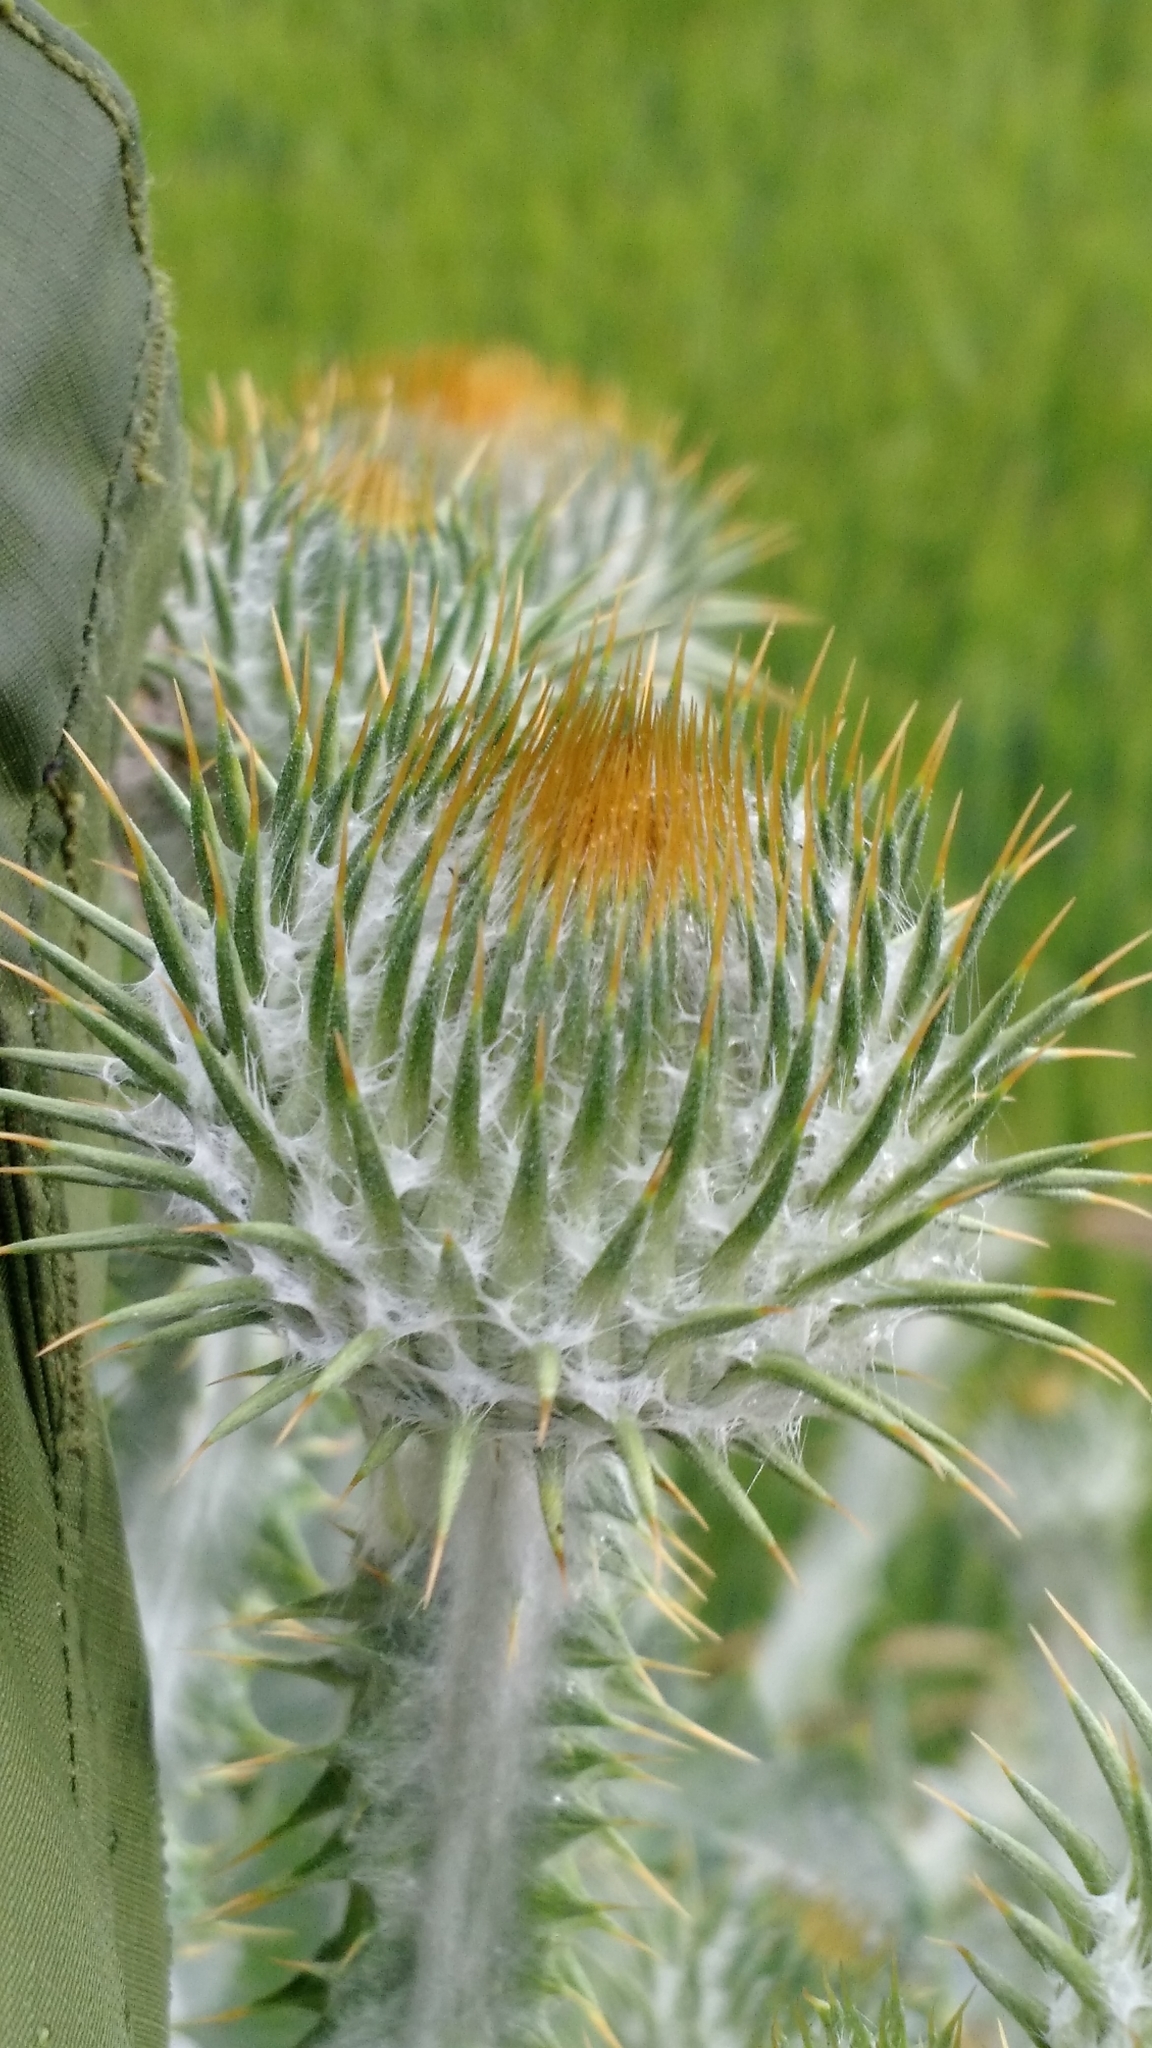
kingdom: Plantae
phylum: Tracheophyta
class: Magnoliopsida
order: Asterales
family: Asteraceae
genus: Onopordum
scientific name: Onopordum acanthium
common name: Scotch thistle
